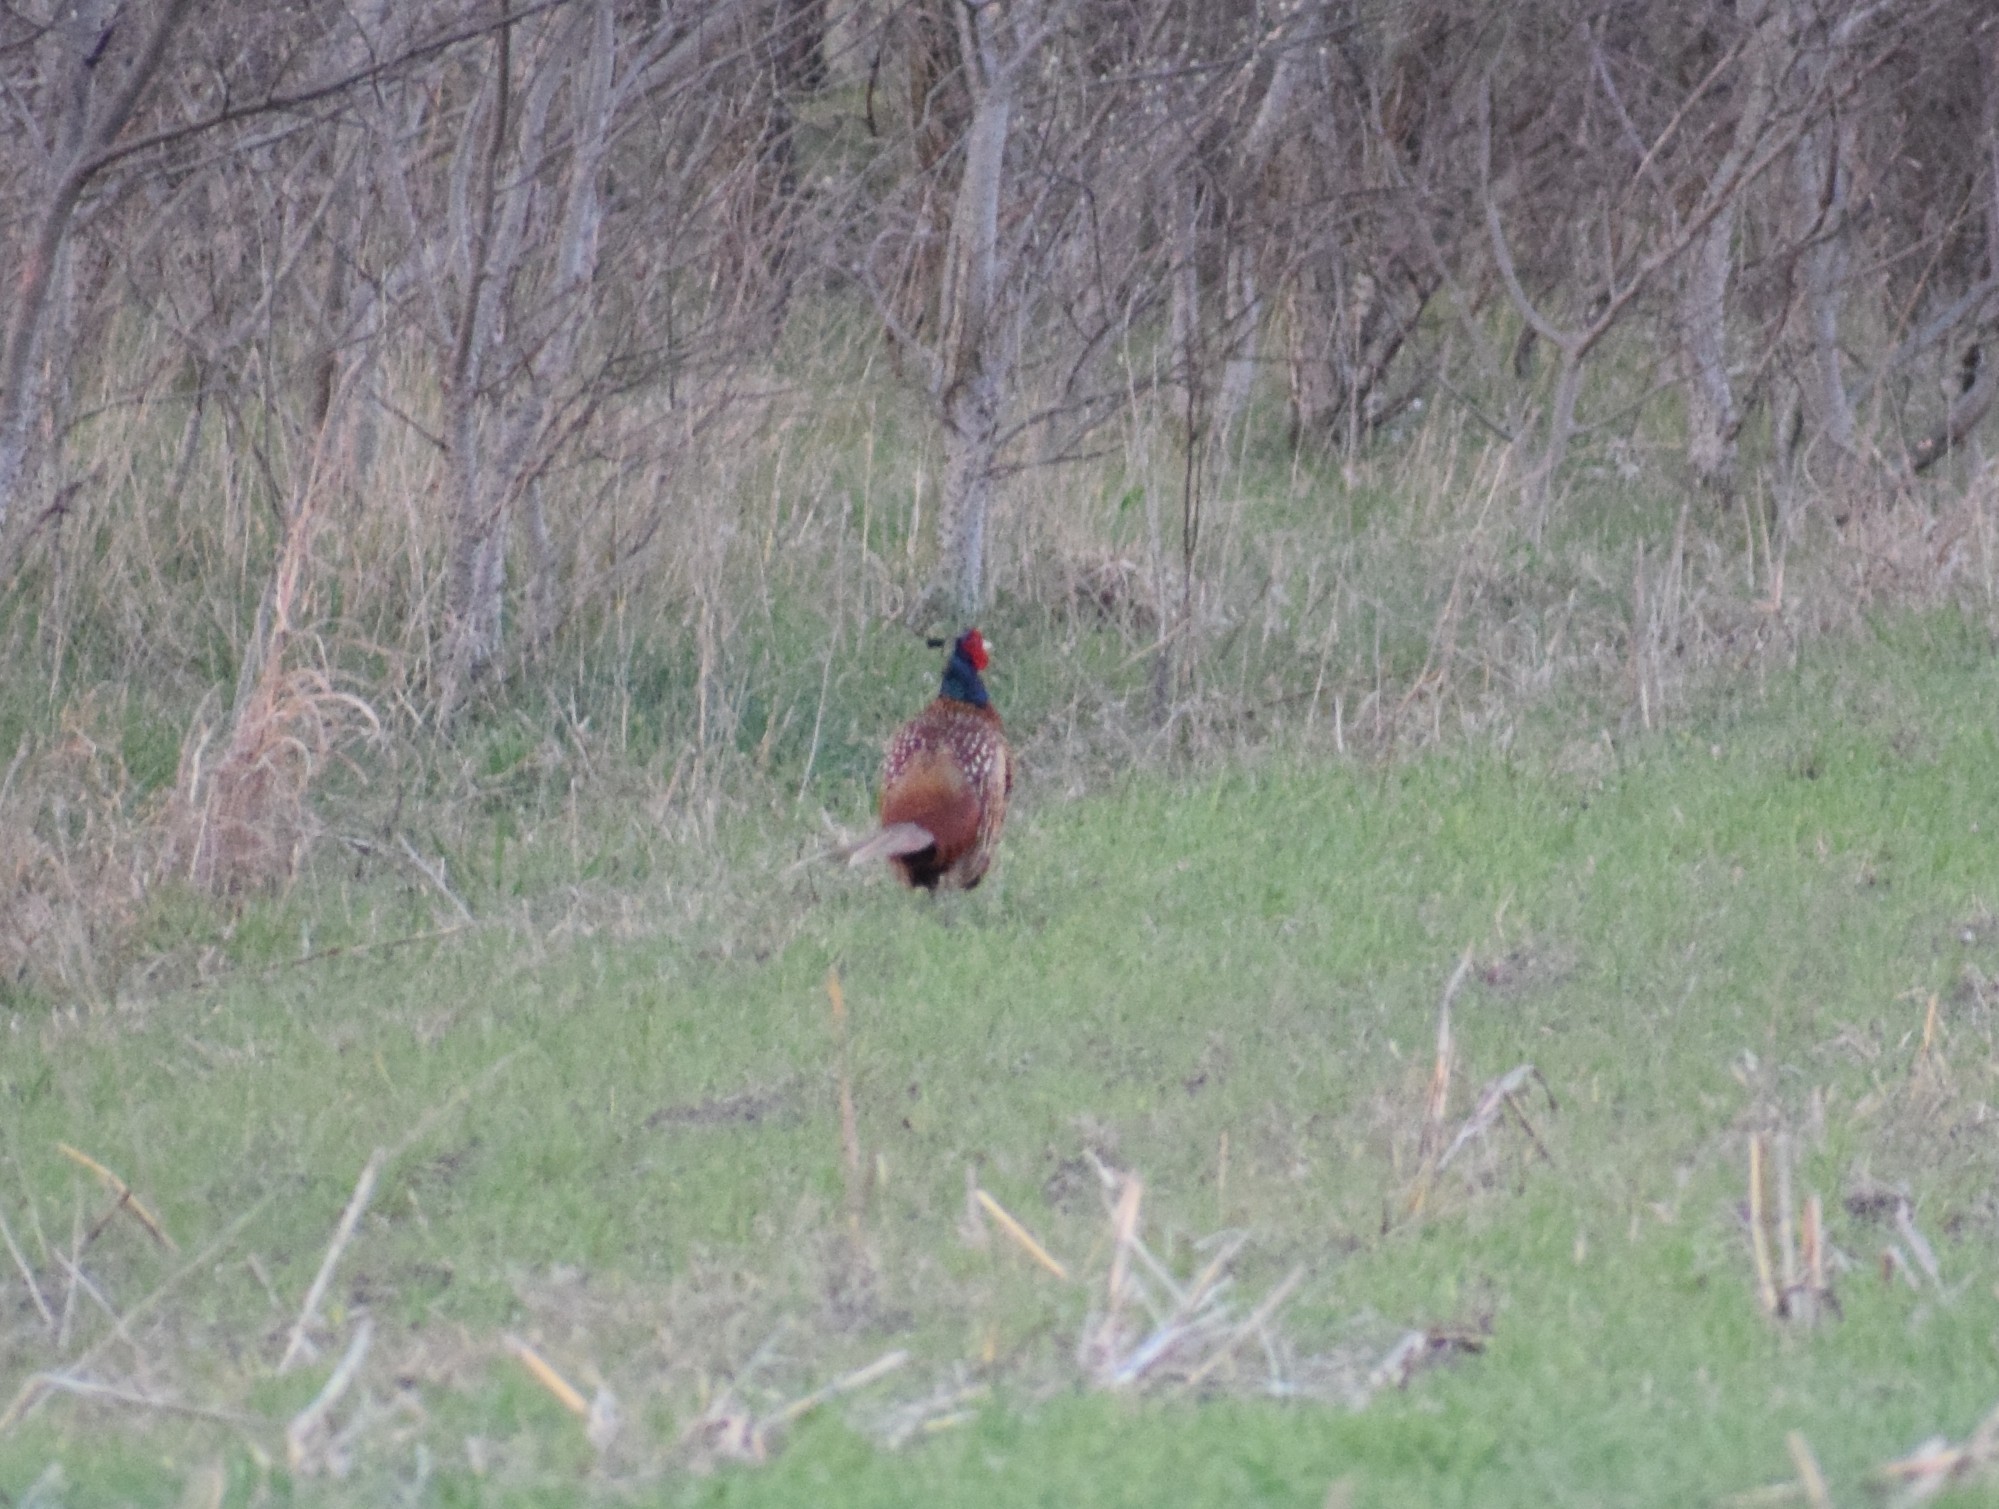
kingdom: Animalia
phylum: Chordata
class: Aves
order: Galliformes
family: Phasianidae
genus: Phasianus
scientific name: Phasianus colchicus
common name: Common pheasant
